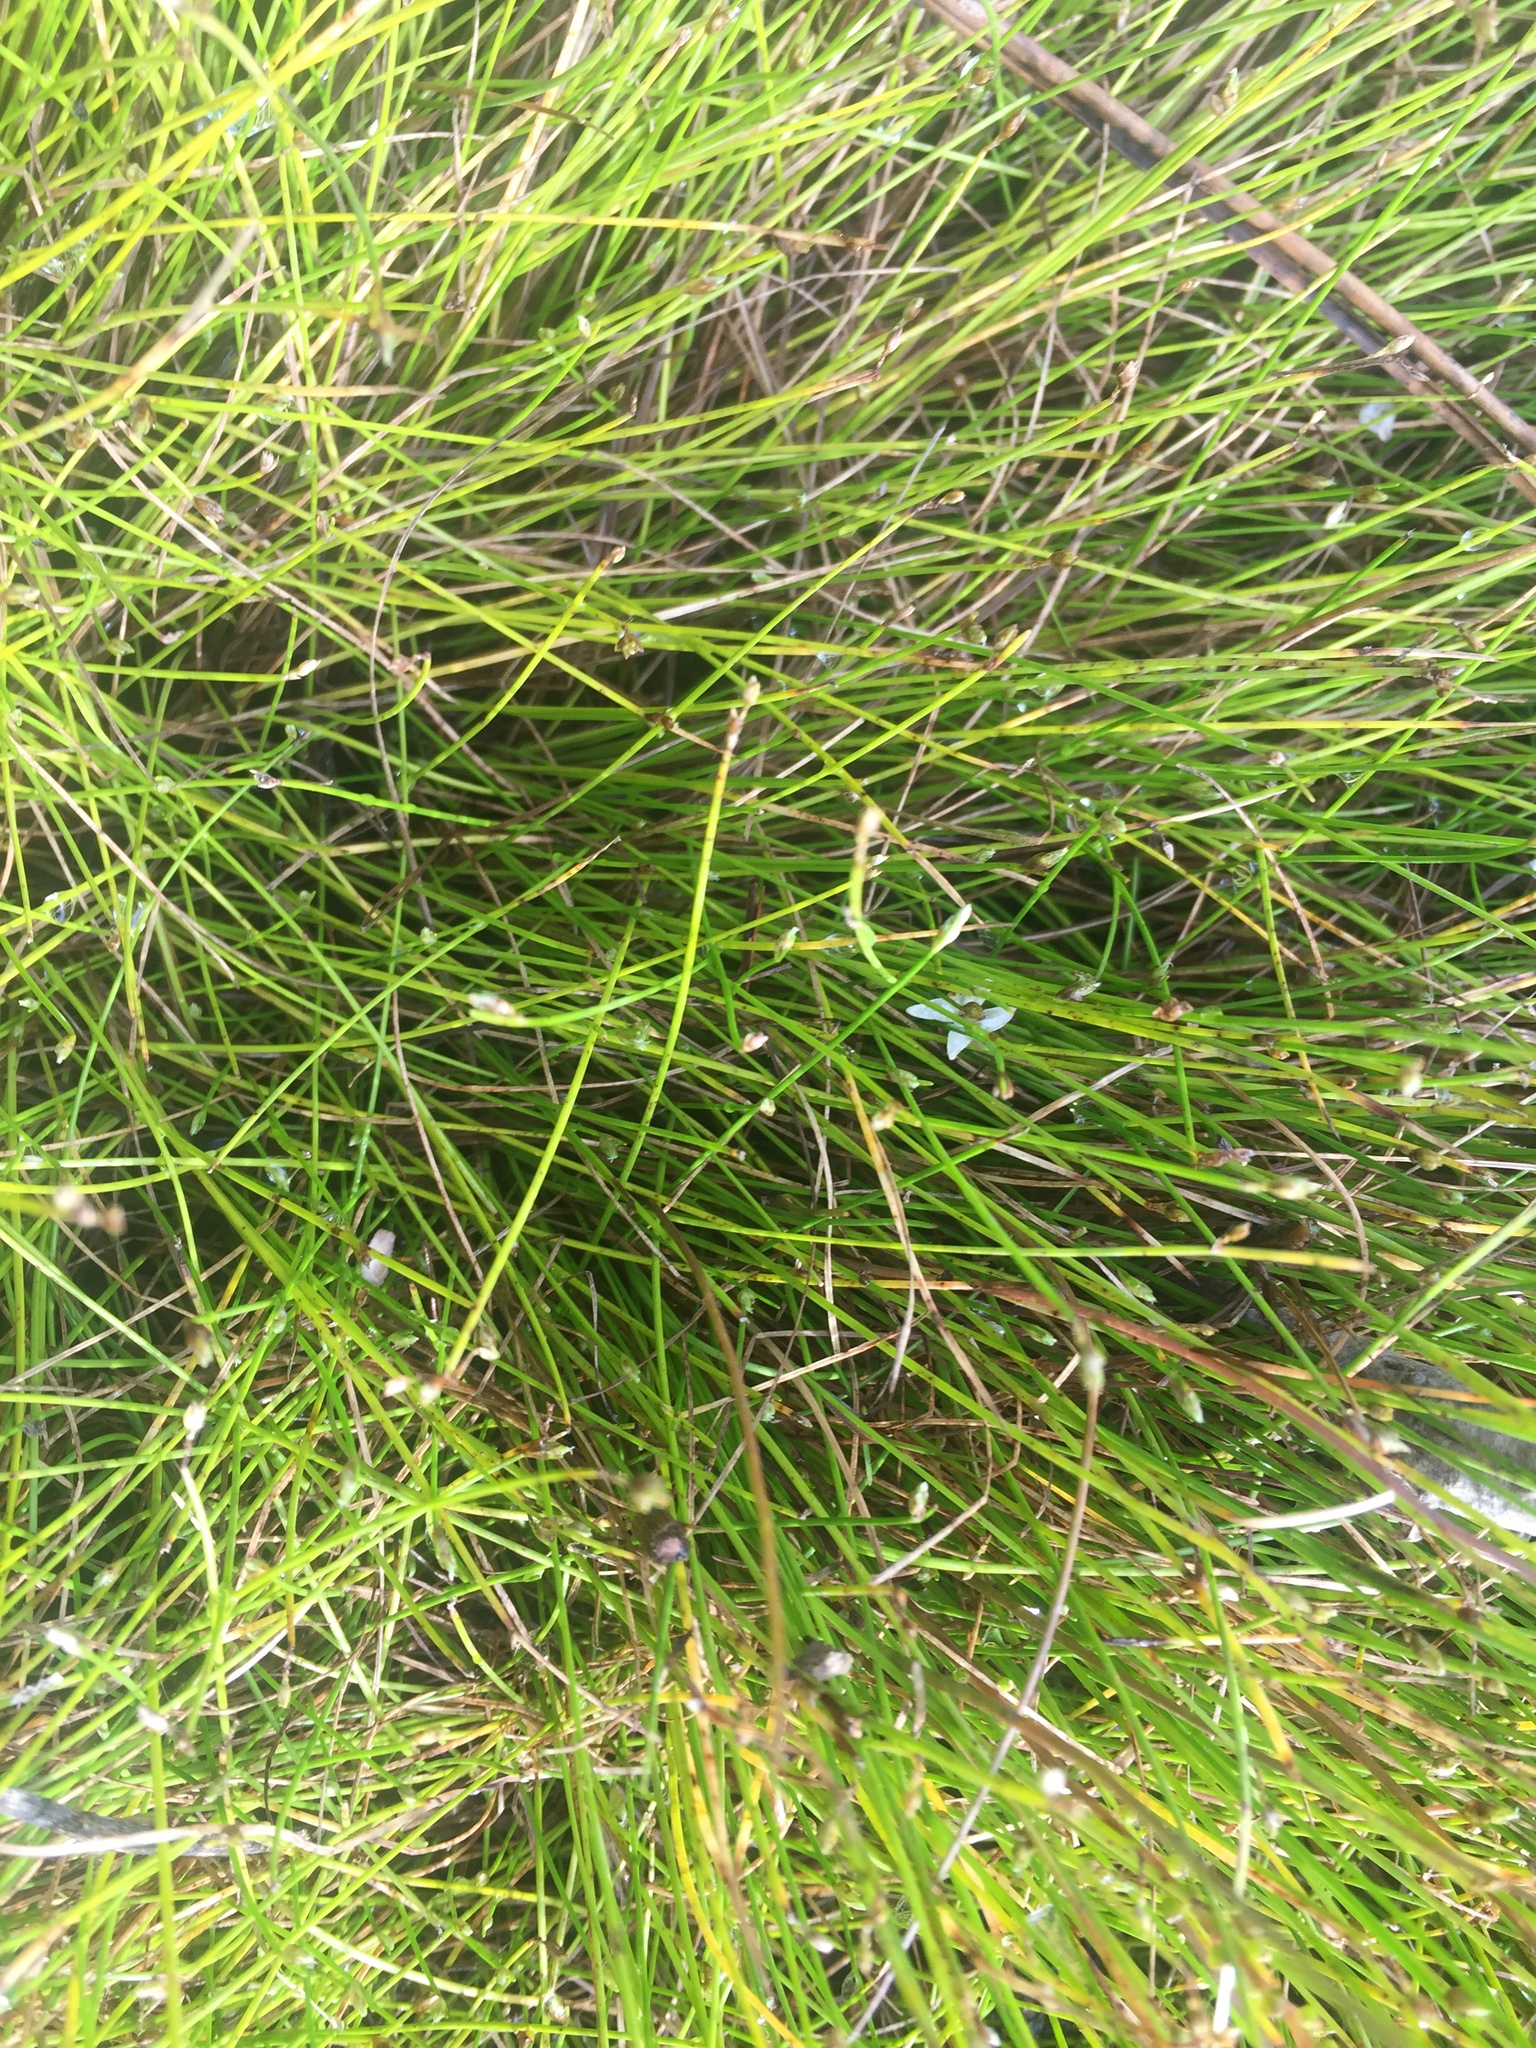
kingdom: Plantae
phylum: Tracheophyta
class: Liliopsida
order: Poales
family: Cyperaceae
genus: Isolepis
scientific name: Isolepis cernua
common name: Slender club-rush
